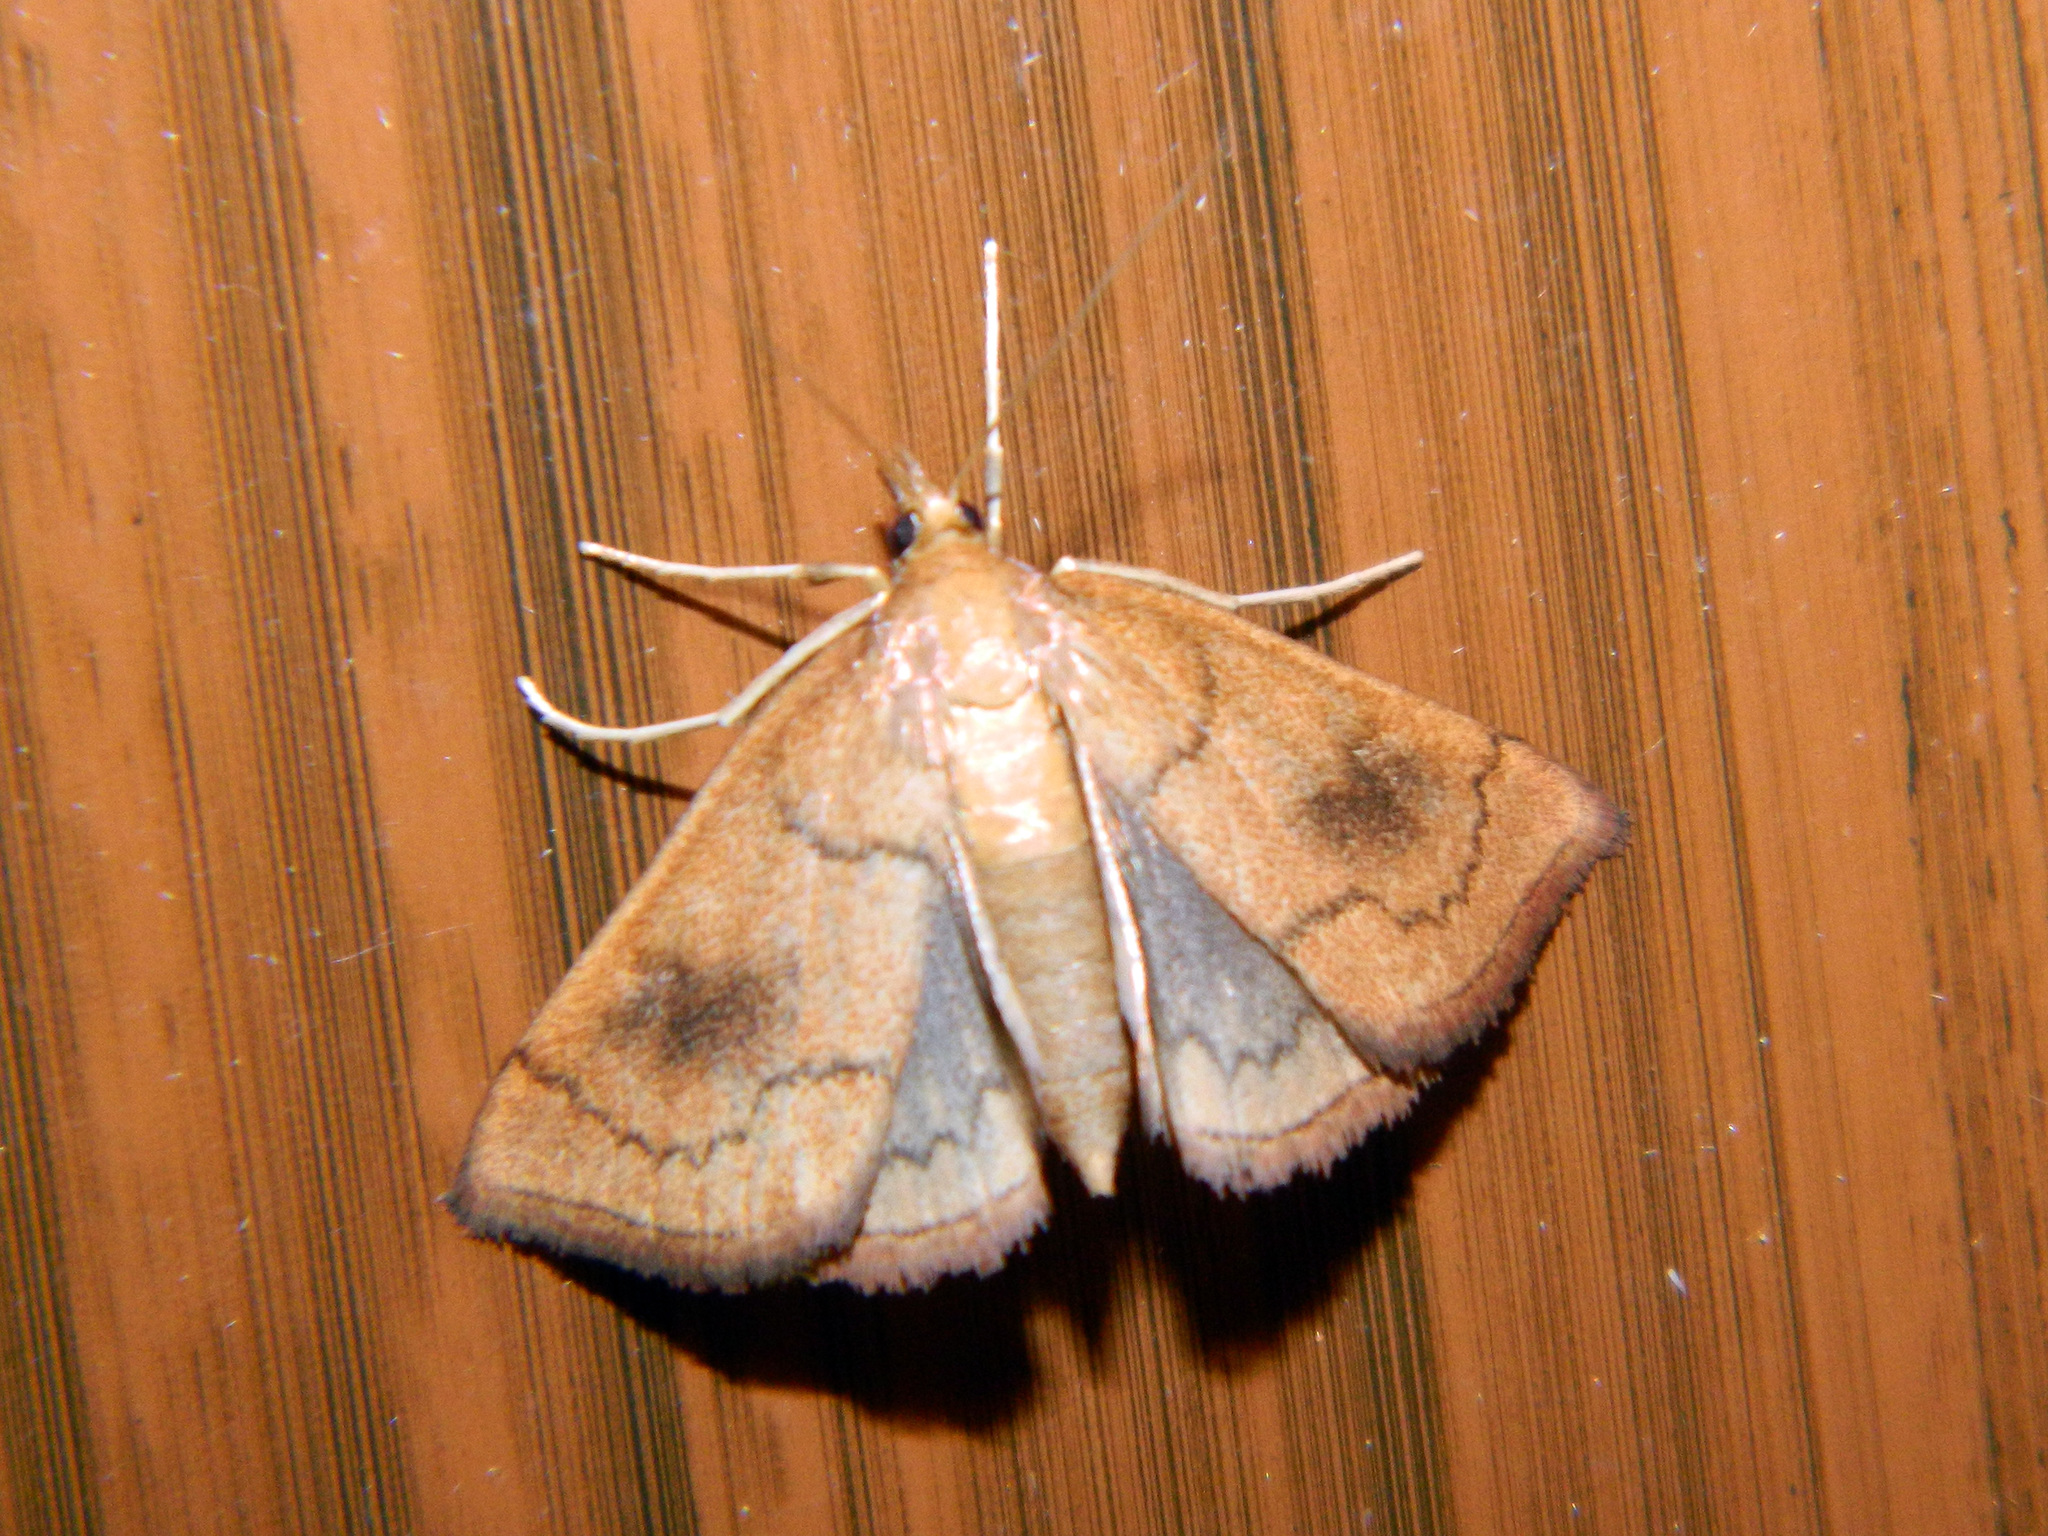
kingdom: Animalia
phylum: Arthropoda
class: Insecta
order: Lepidoptera
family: Crambidae
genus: Fumibotys
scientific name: Fumibotys fumalis
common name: Mint root borer moth
